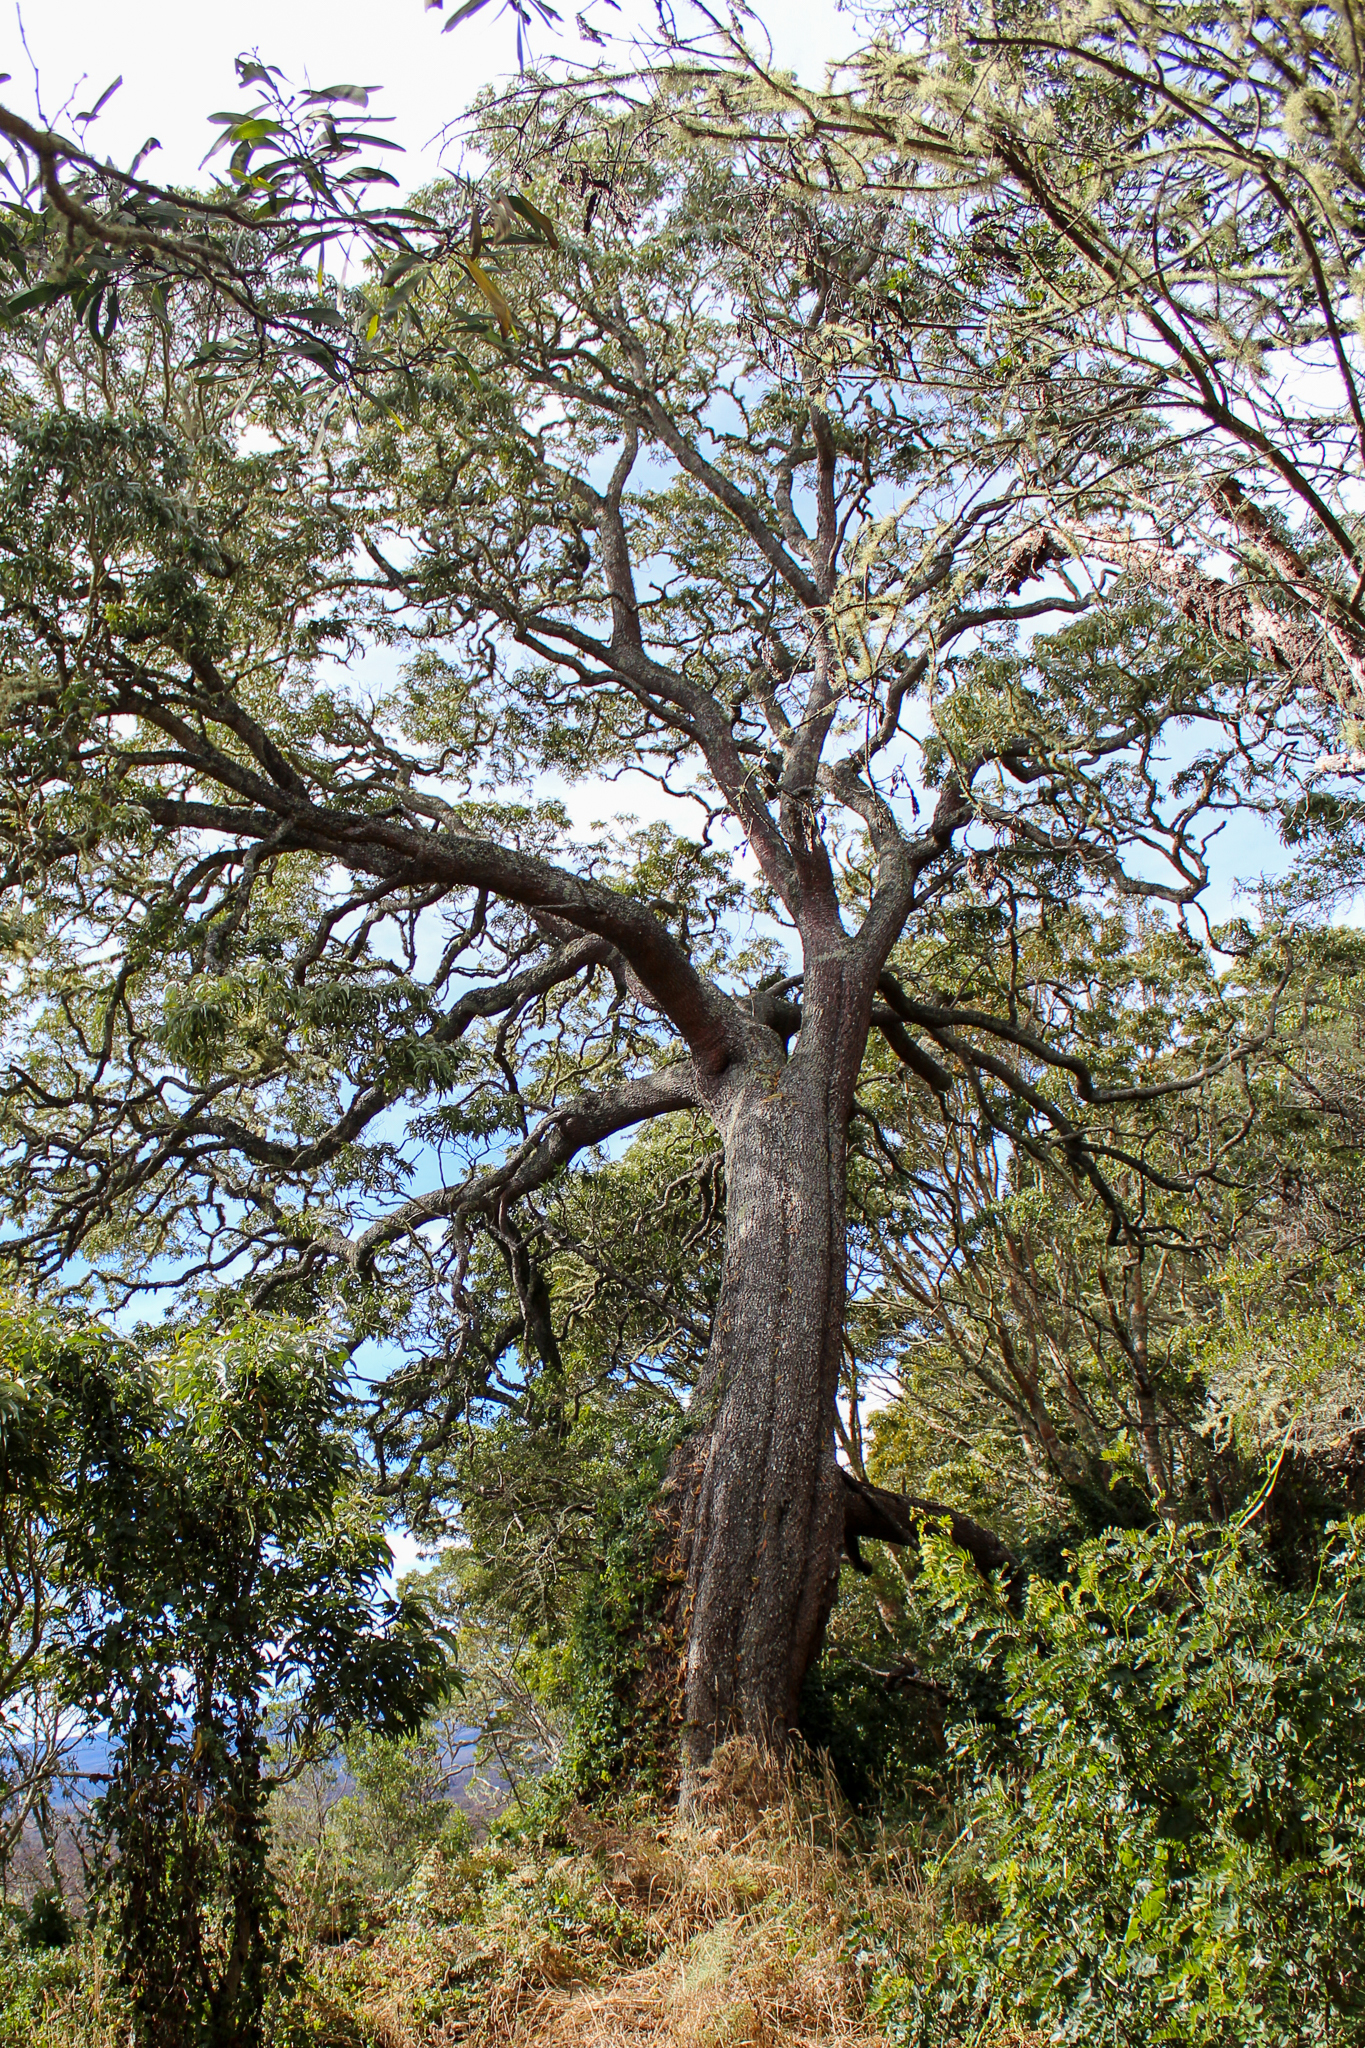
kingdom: Plantae
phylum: Tracheophyta
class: Magnoliopsida
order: Fabales
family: Fabaceae
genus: Acacia
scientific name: Acacia koa
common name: Gray koa
